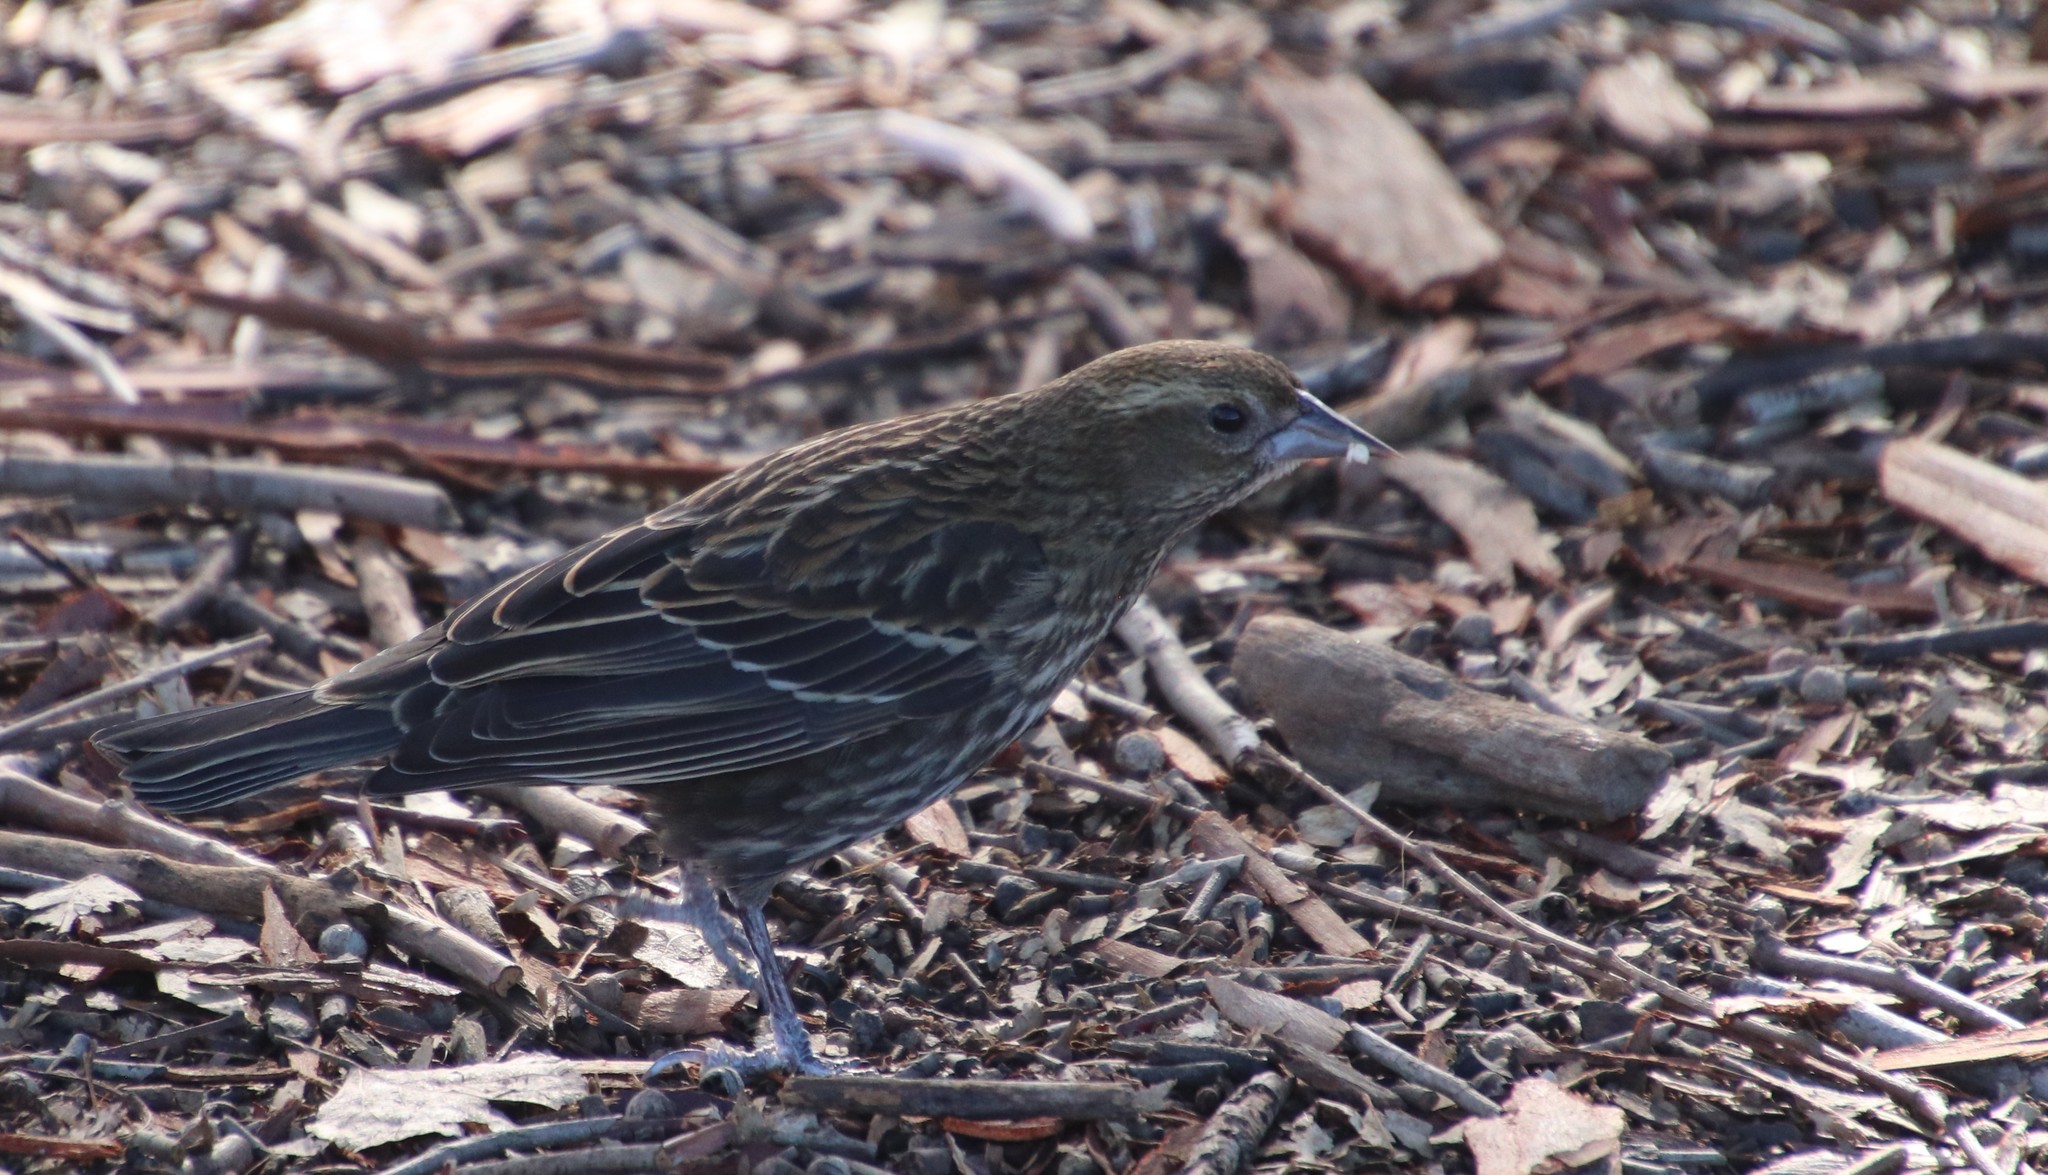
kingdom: Animalia
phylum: Chordata
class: Aves
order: Passeriformes
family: Icteridae
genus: Agelaius
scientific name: Agelaius phoeniceus
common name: Red-winged blackbird
